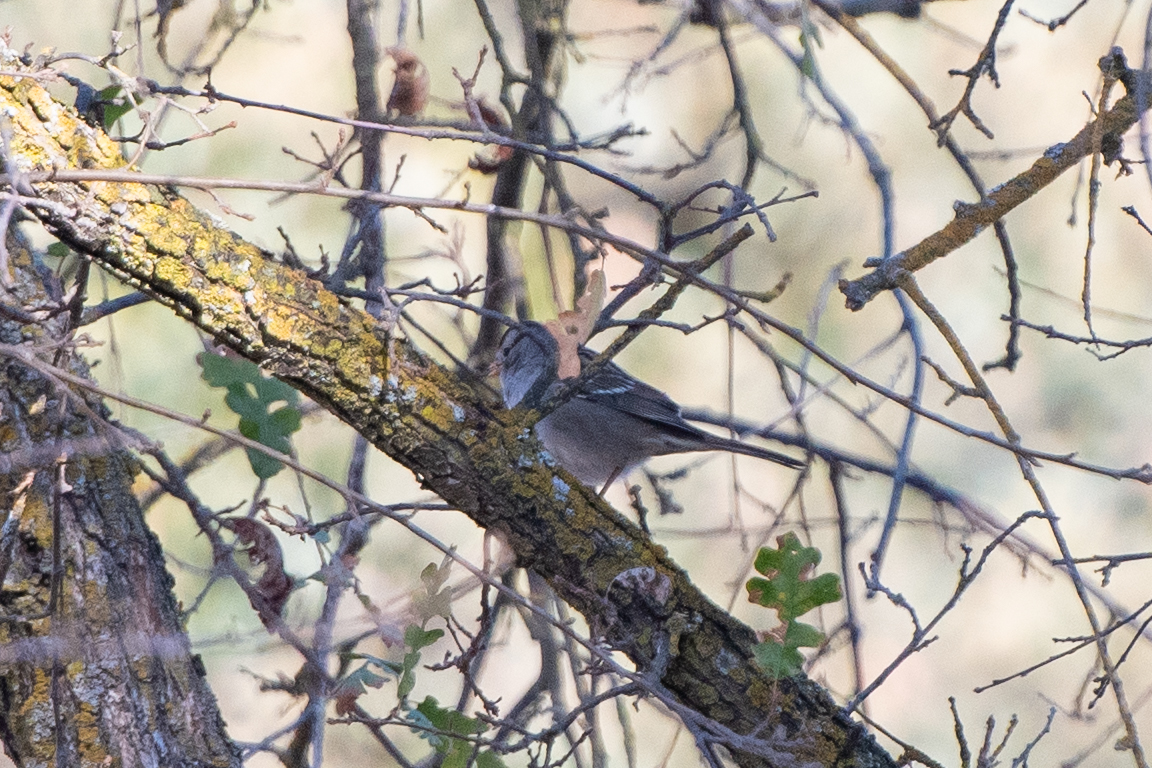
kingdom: Animalia
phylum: Chordata
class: Aves
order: Passeriformes
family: Passerellidae
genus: Zonotrichia
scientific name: Zonotrichia leucophrys
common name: White-crowned sparrow
